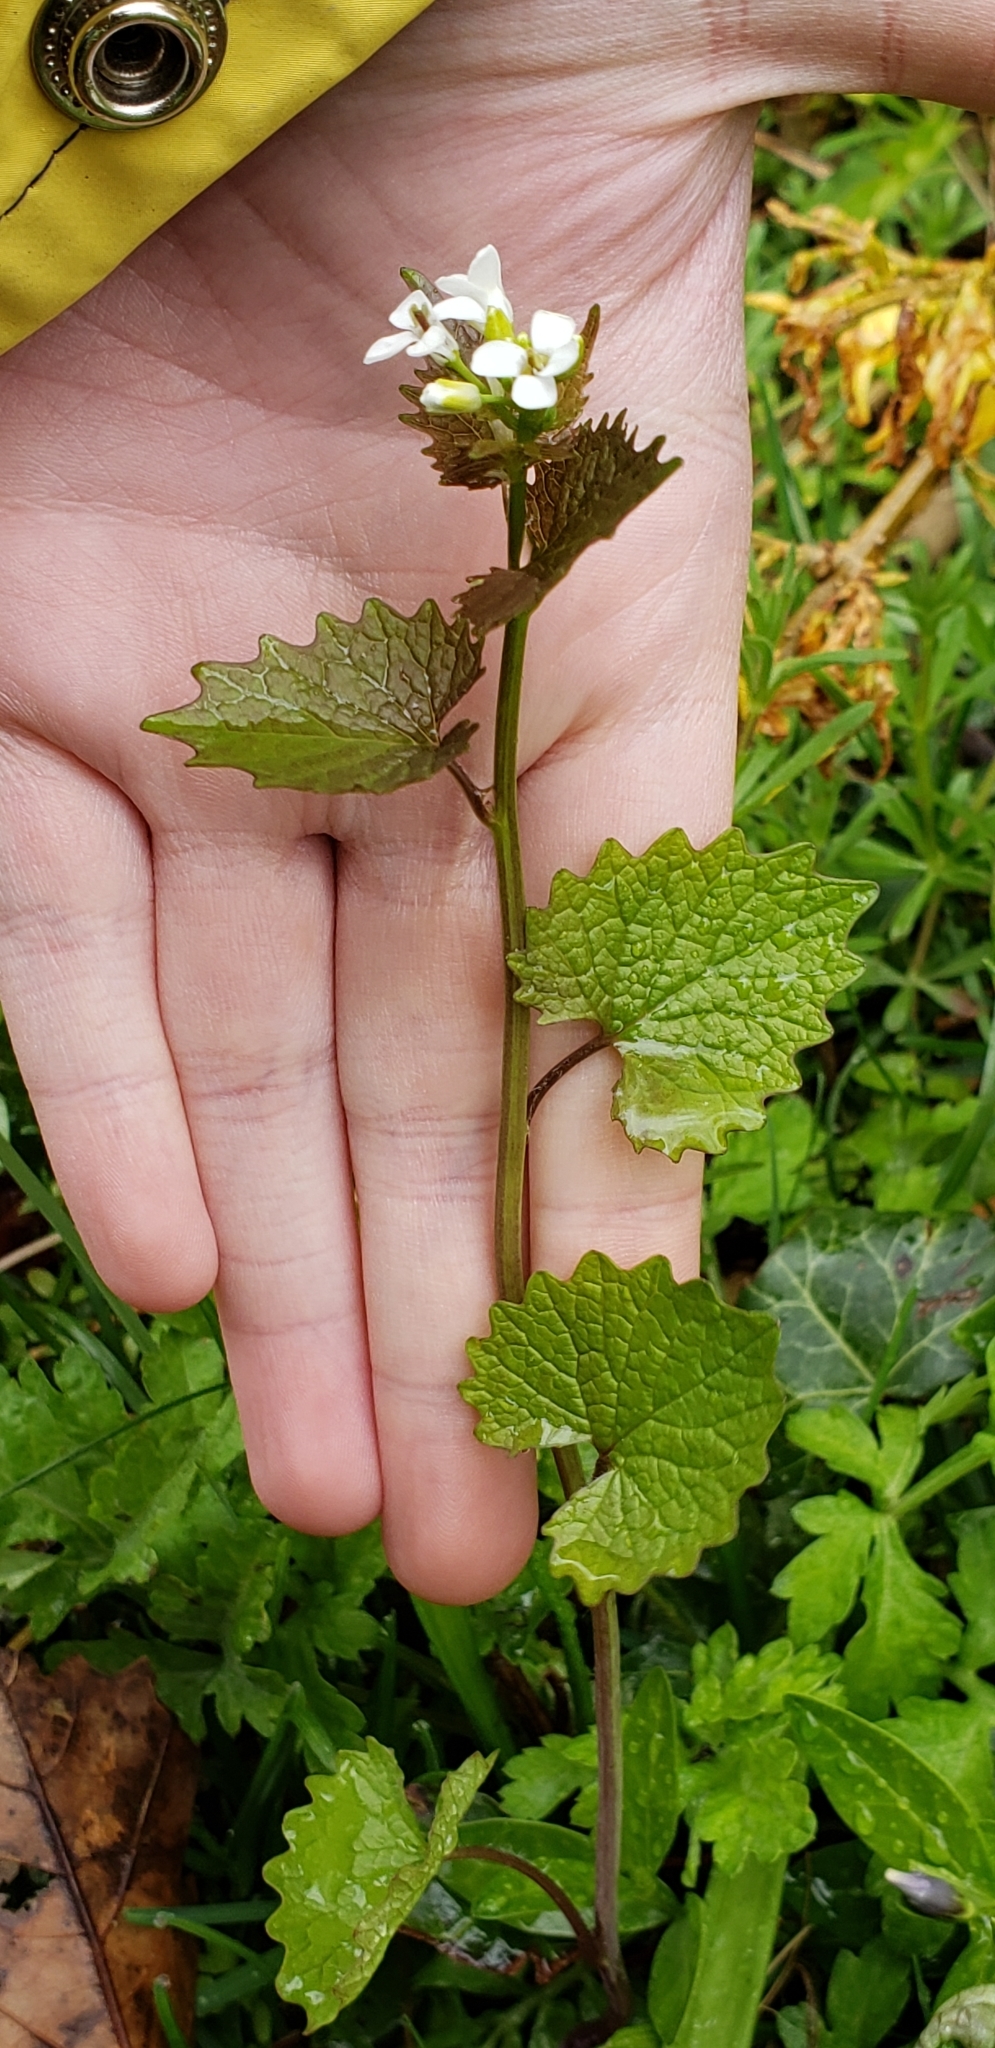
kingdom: Plantae
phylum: Tracheophyta
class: Magnoliopsida
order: Brassicales
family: Brassicaceae
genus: Alliaria
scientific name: Alliaria petiolata
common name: Garlic mustard
